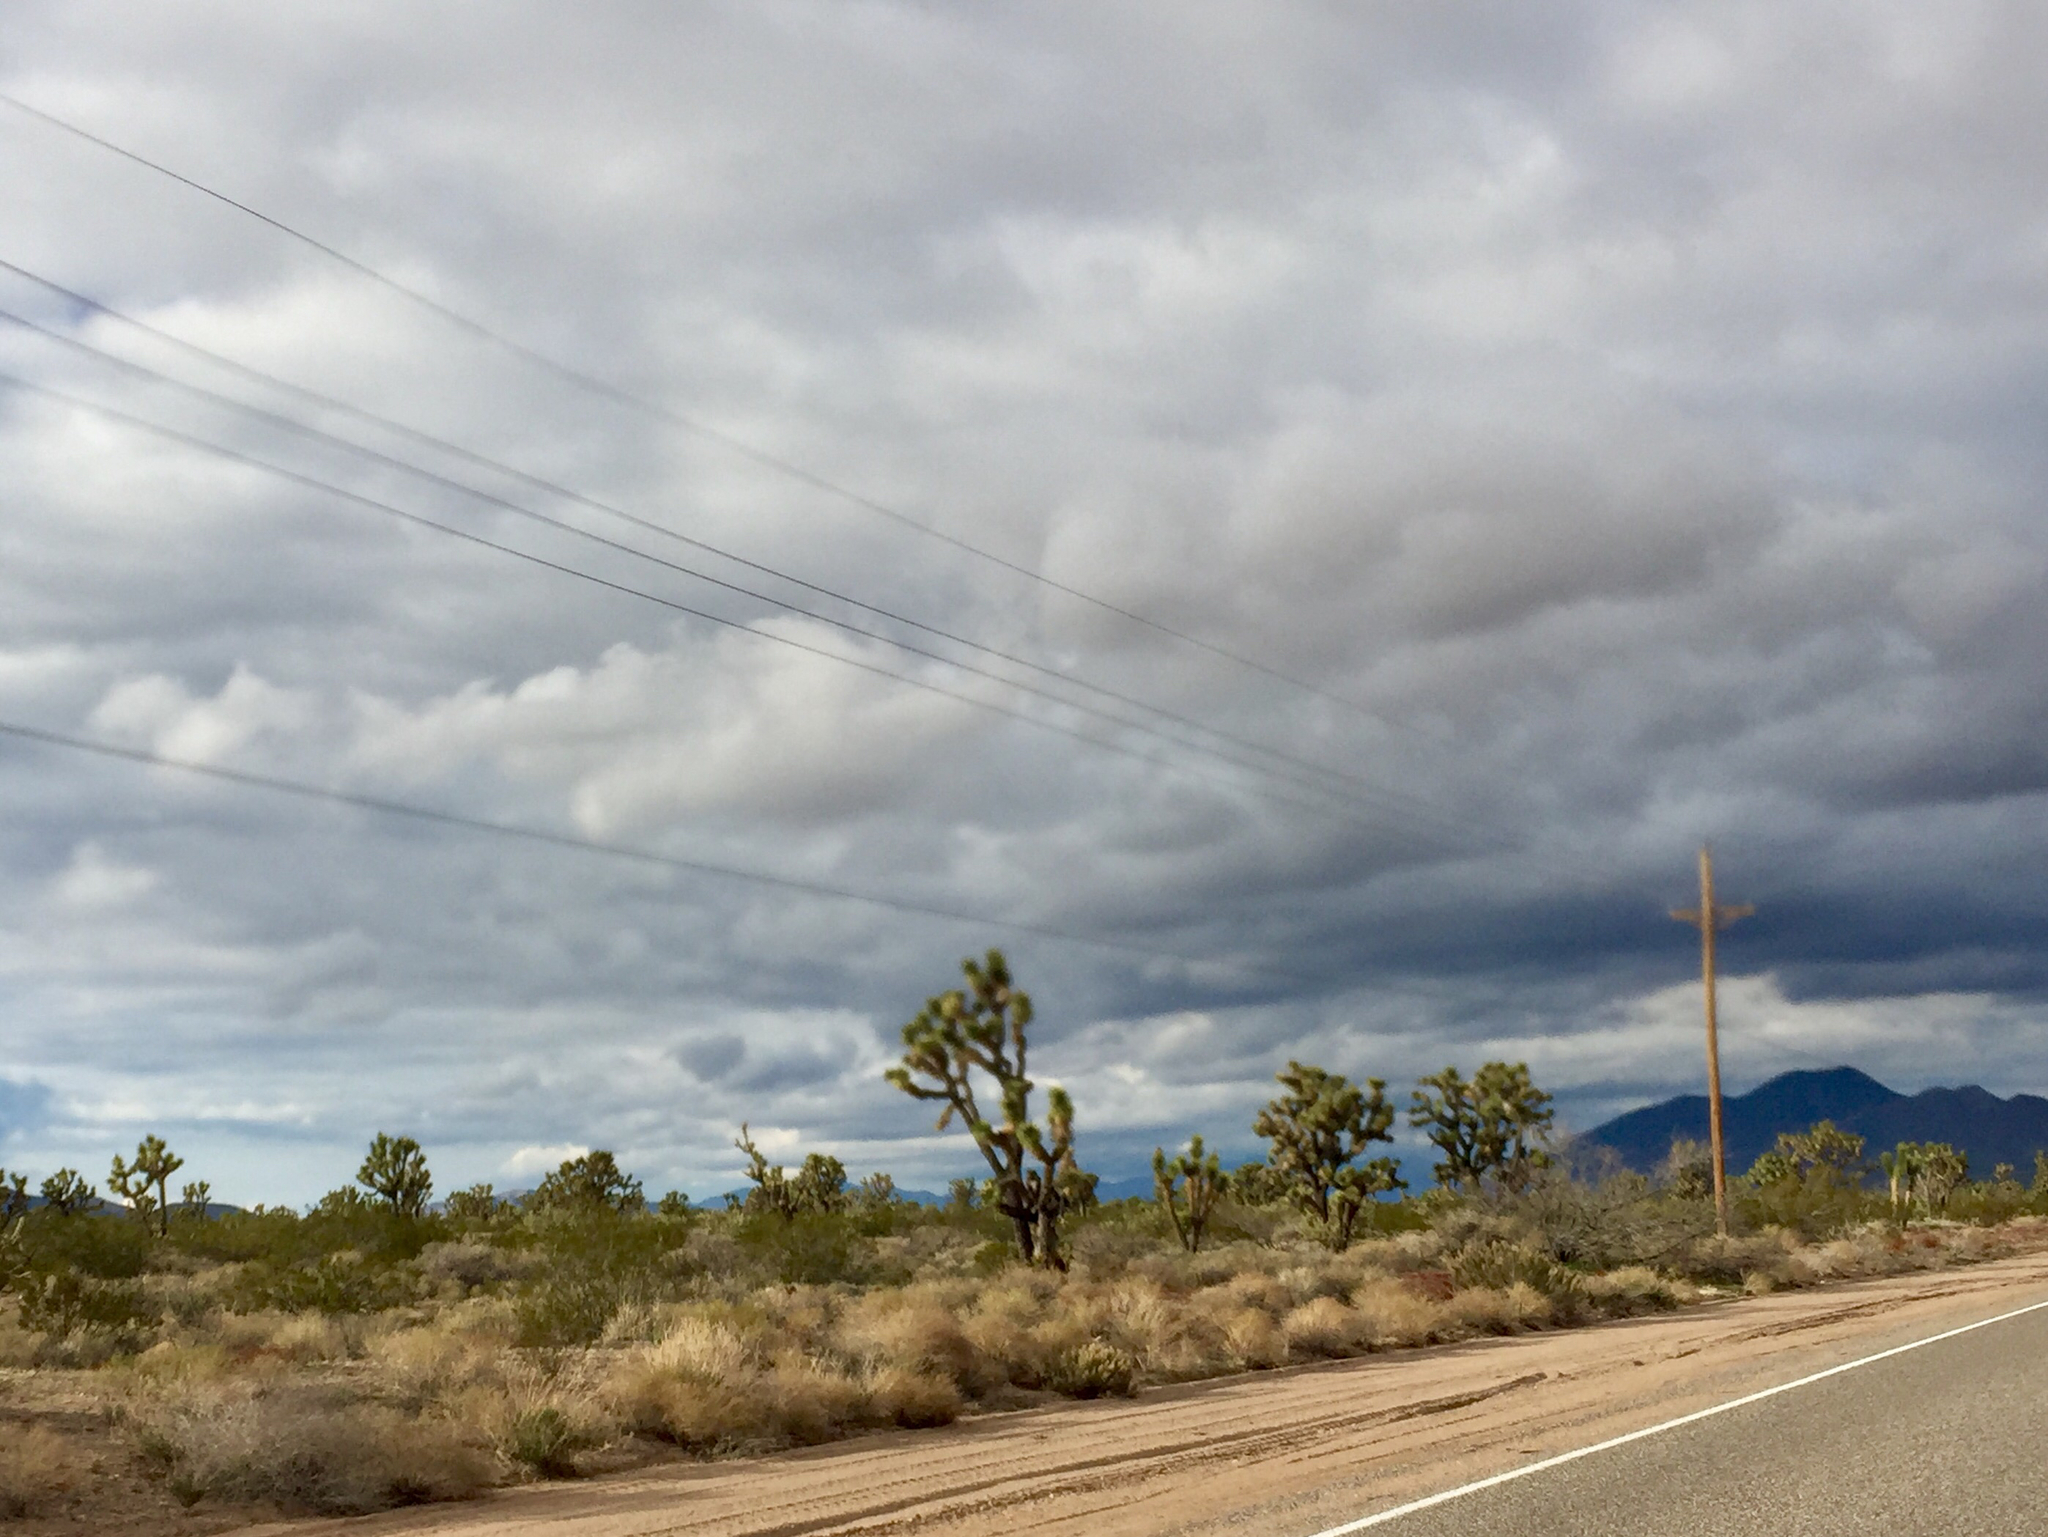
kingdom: Plantae
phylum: Tracheophyta
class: Liliopsida
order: Asparagales
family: Asparagaceae
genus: Yucca
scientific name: Yucca brevifolia
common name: Joshua tree
